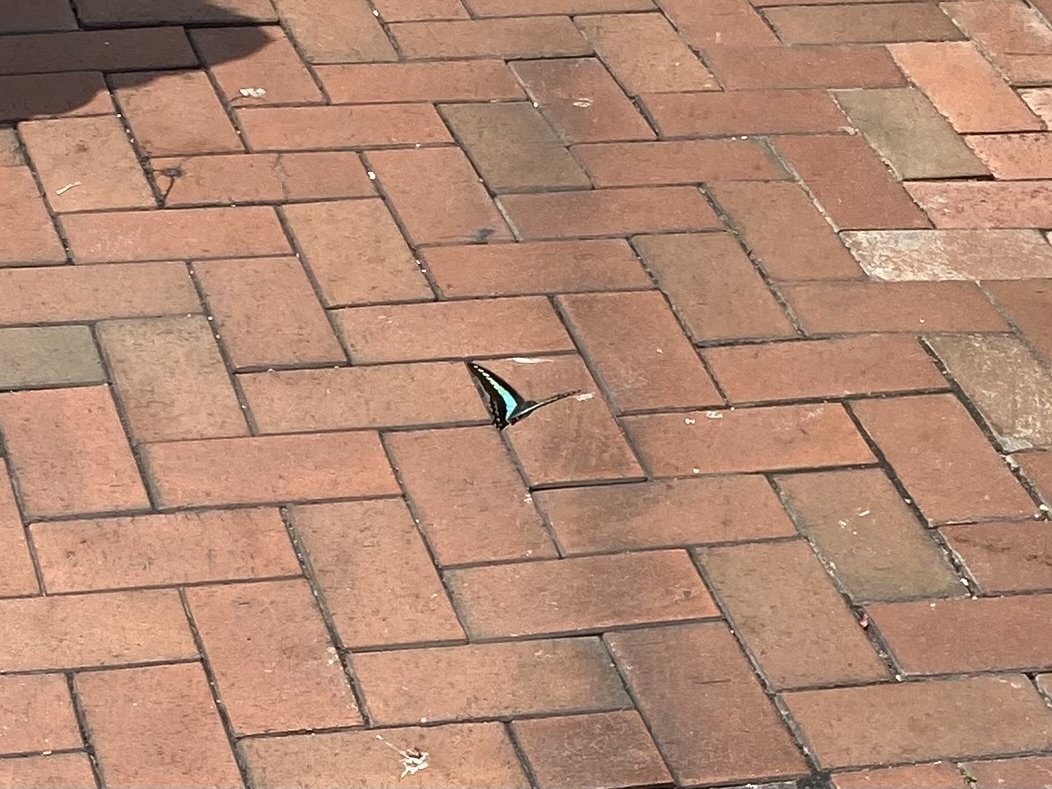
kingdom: Fungi
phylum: Ascomycota
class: Sordariomycetes
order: Microascales
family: Microascaceae
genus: Graphium
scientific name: Graphium sarpedon
